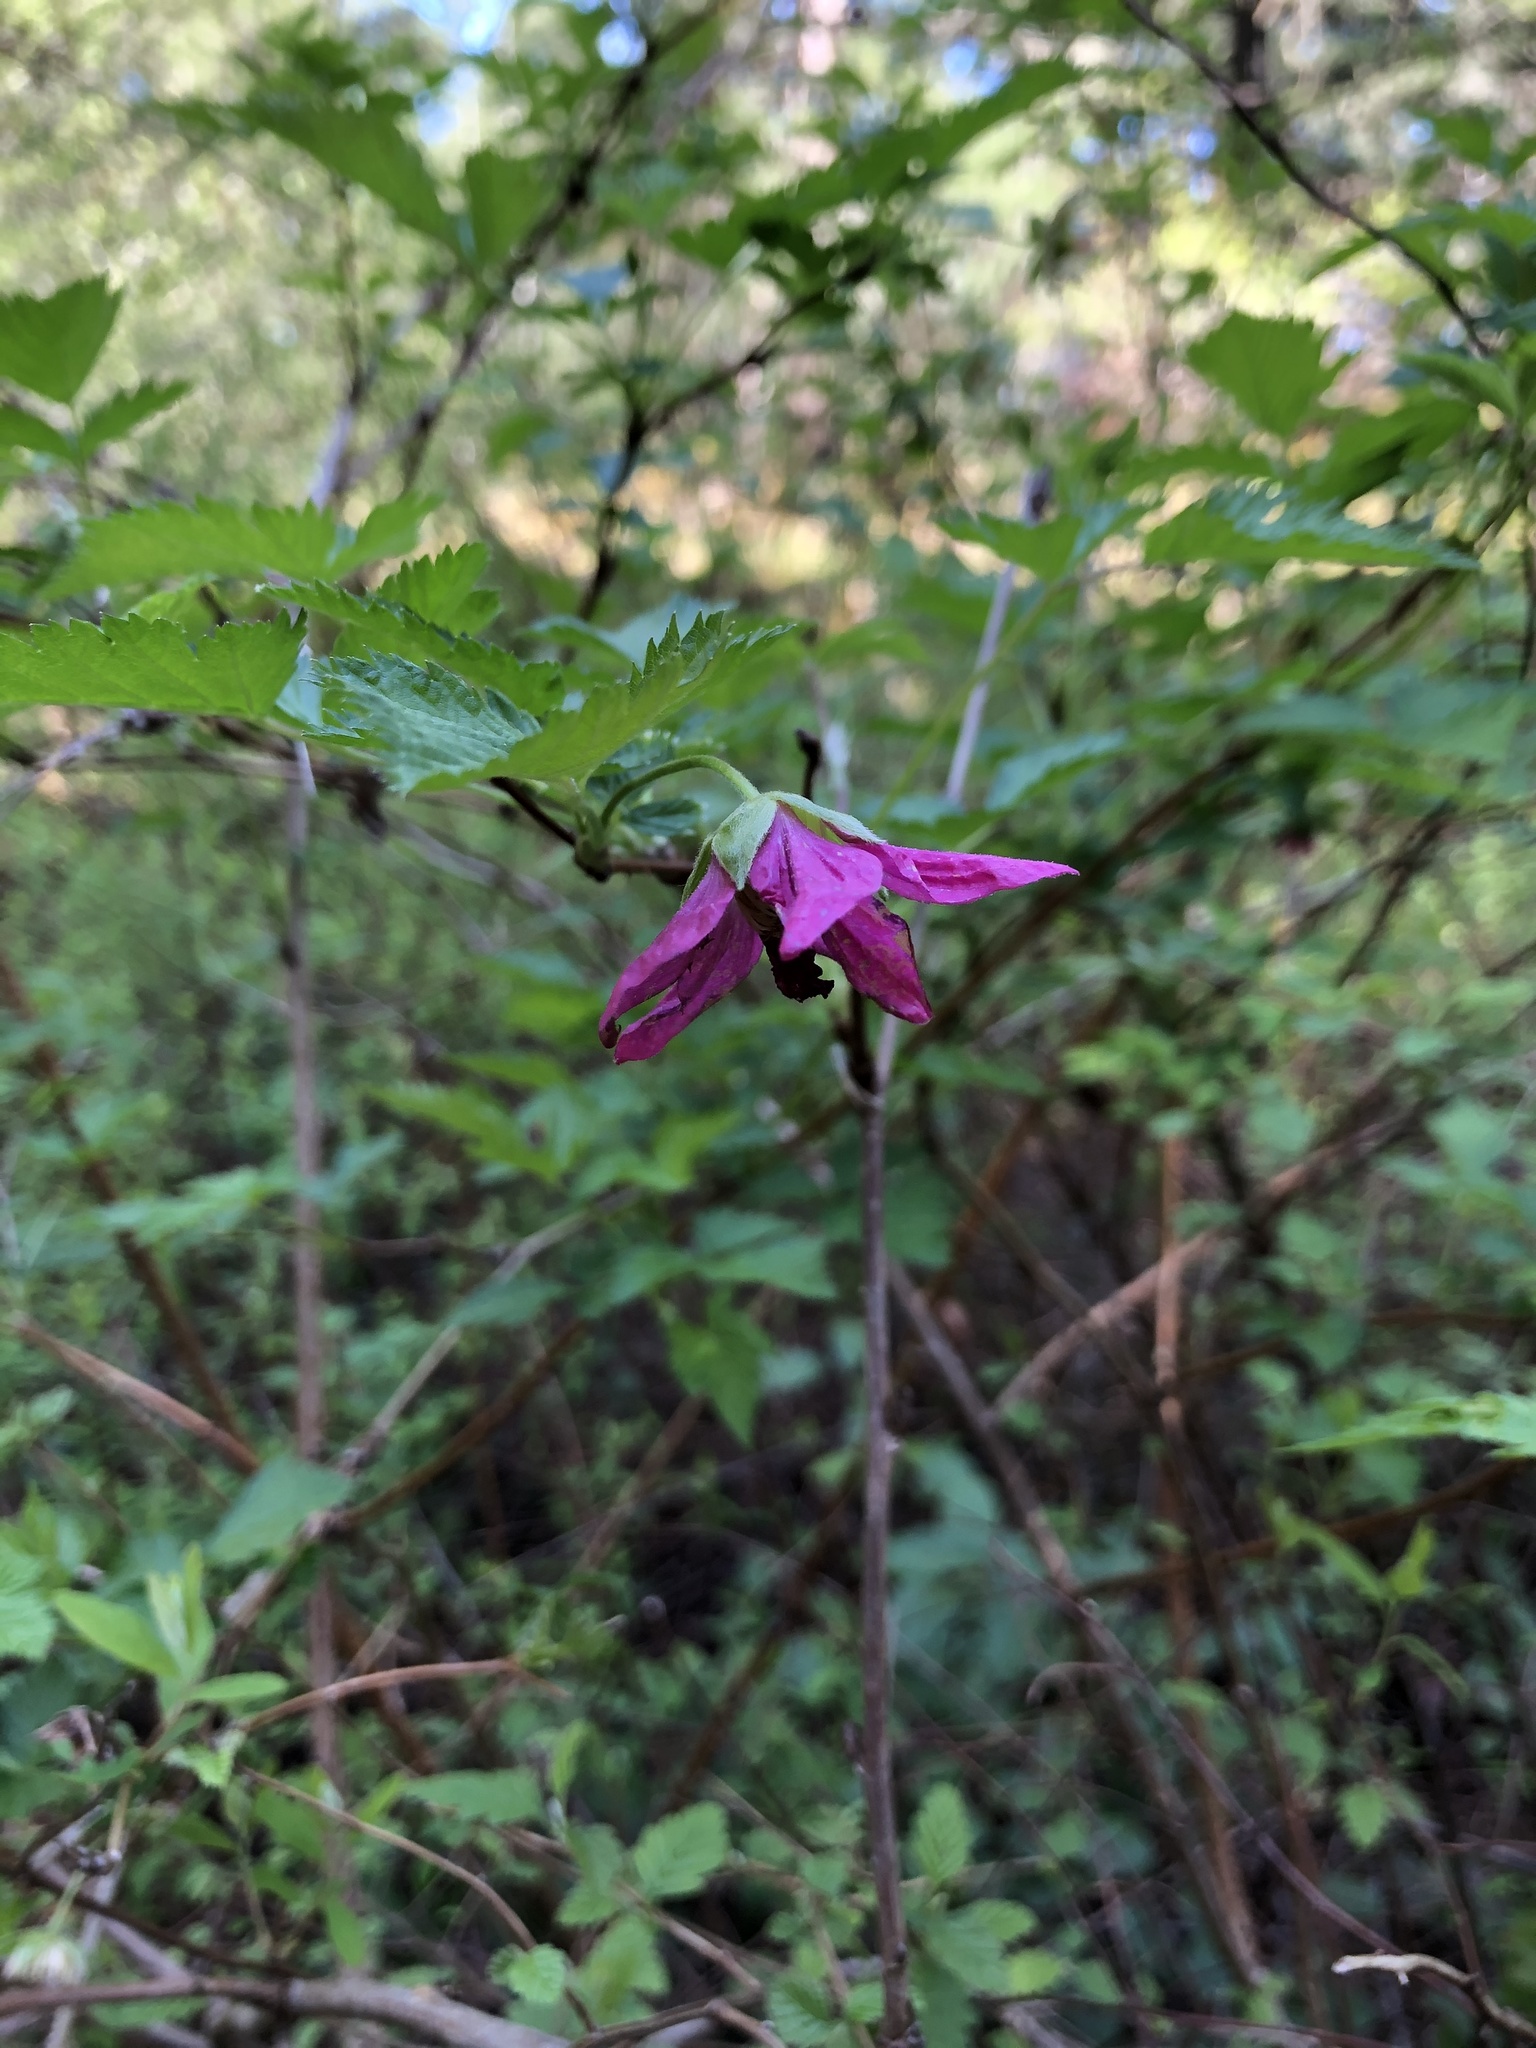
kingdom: Plantae
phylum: Tracheophyta
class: Magnoliopsida
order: Rosales
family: Rosaceae
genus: Rubus
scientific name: Rubus spectabilis
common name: Salmonberry
